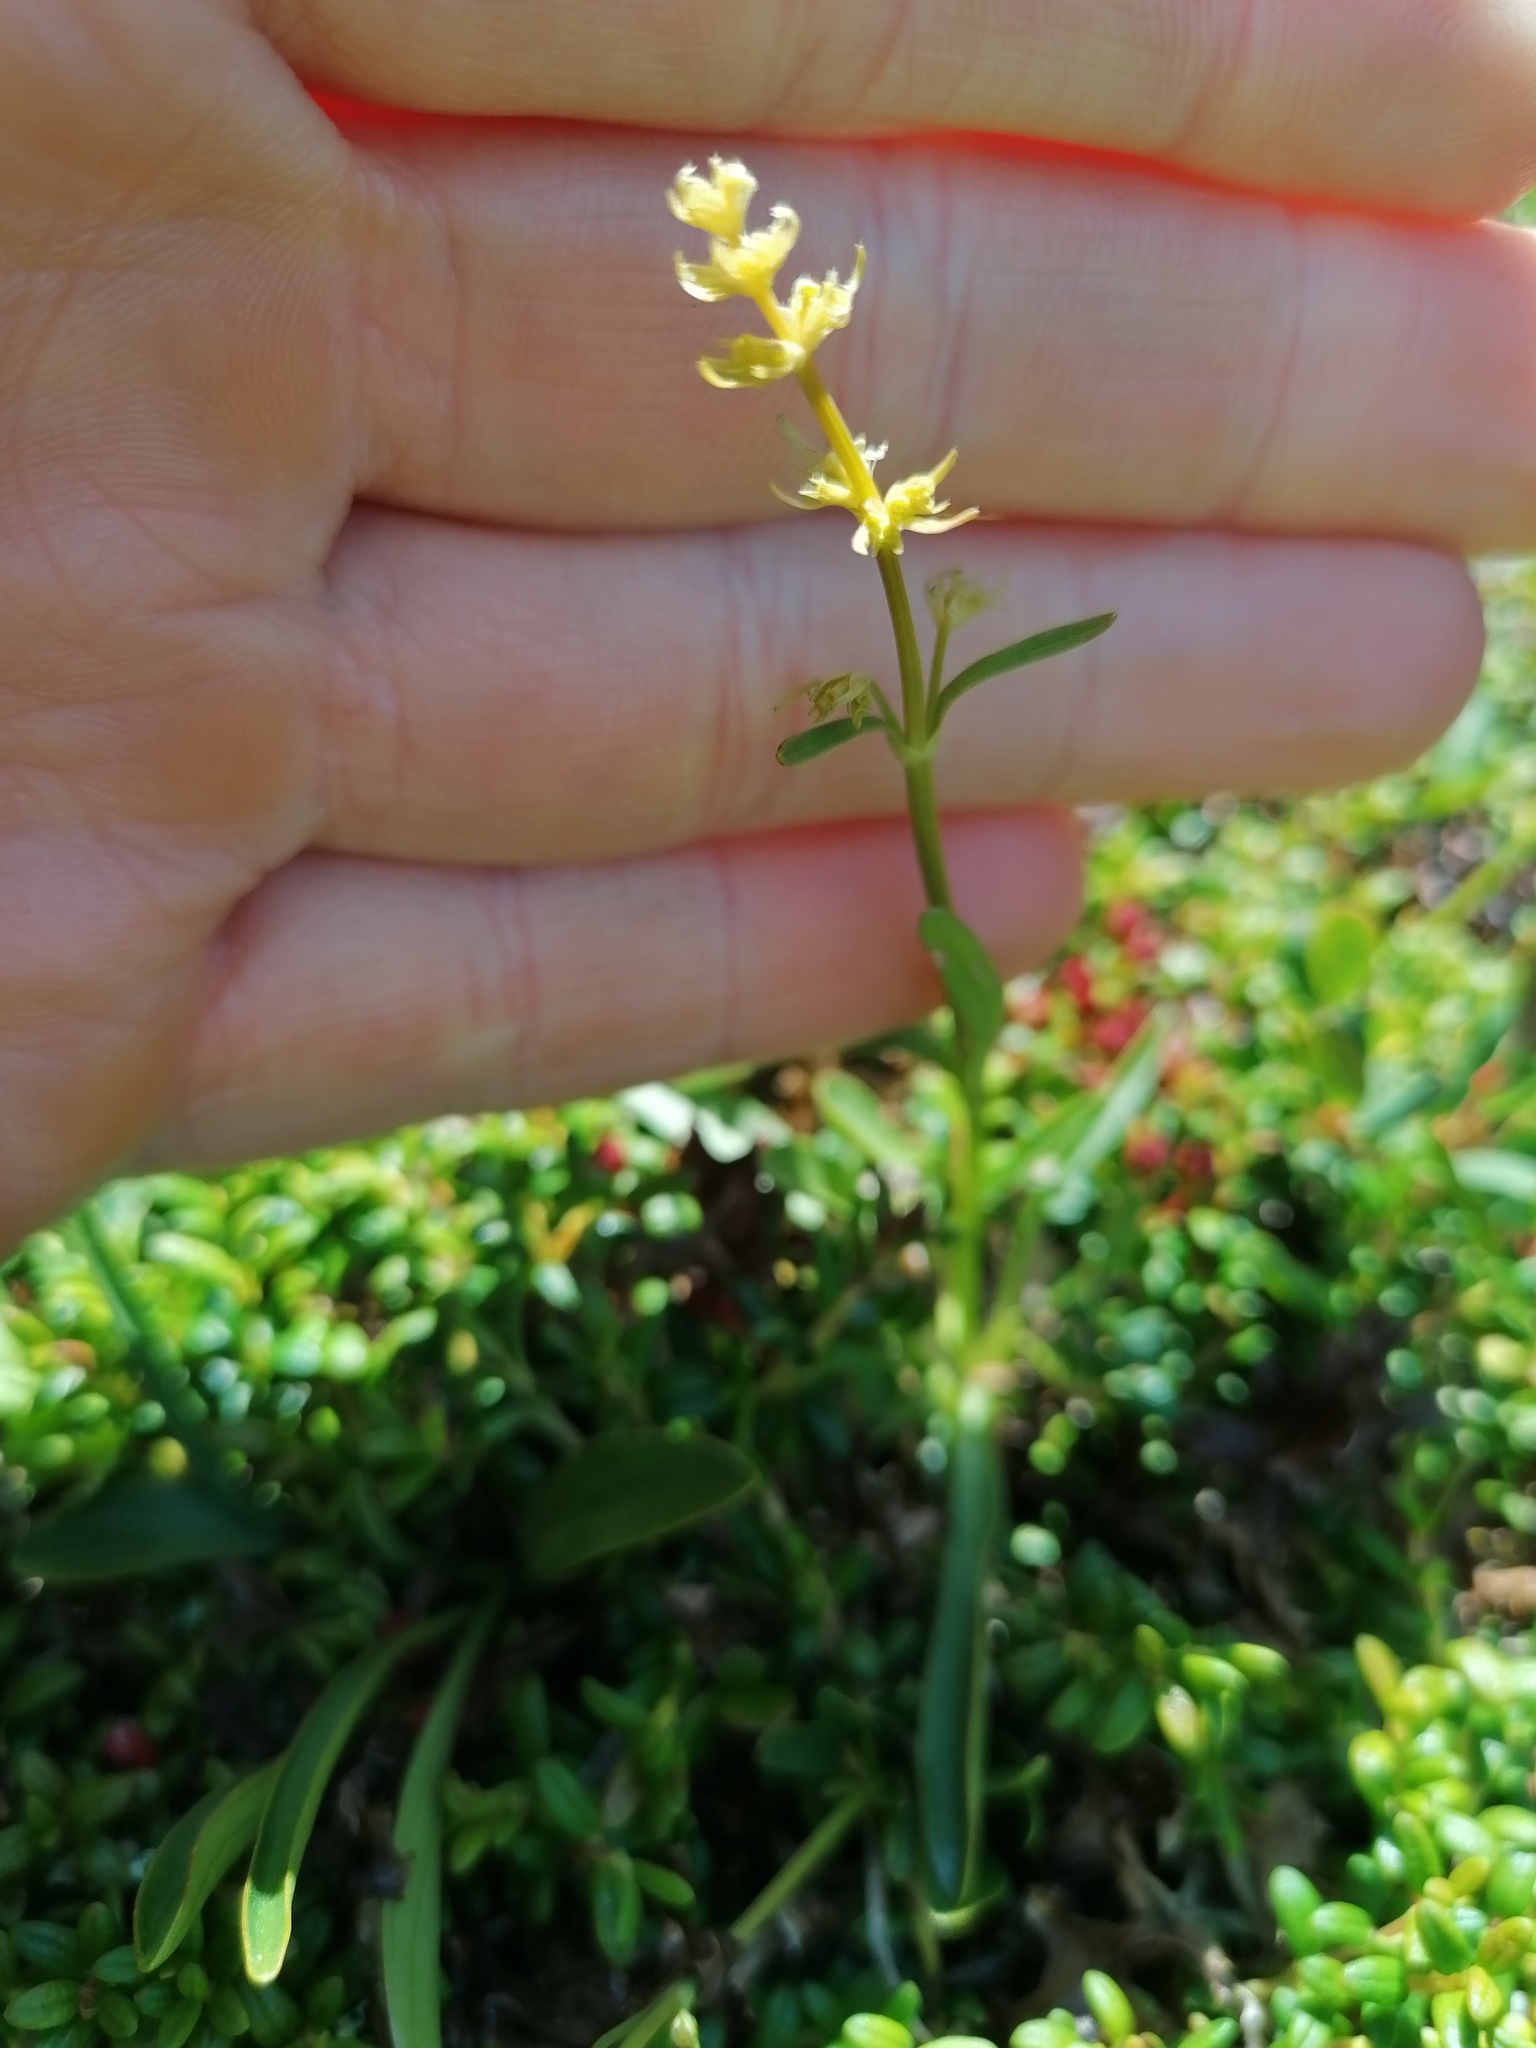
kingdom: Plantae
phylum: Tracheophyta
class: Magnoliopsida
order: Dipsacales
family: Caprifoliaceae
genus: Valeriana
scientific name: Valeriana celtica
